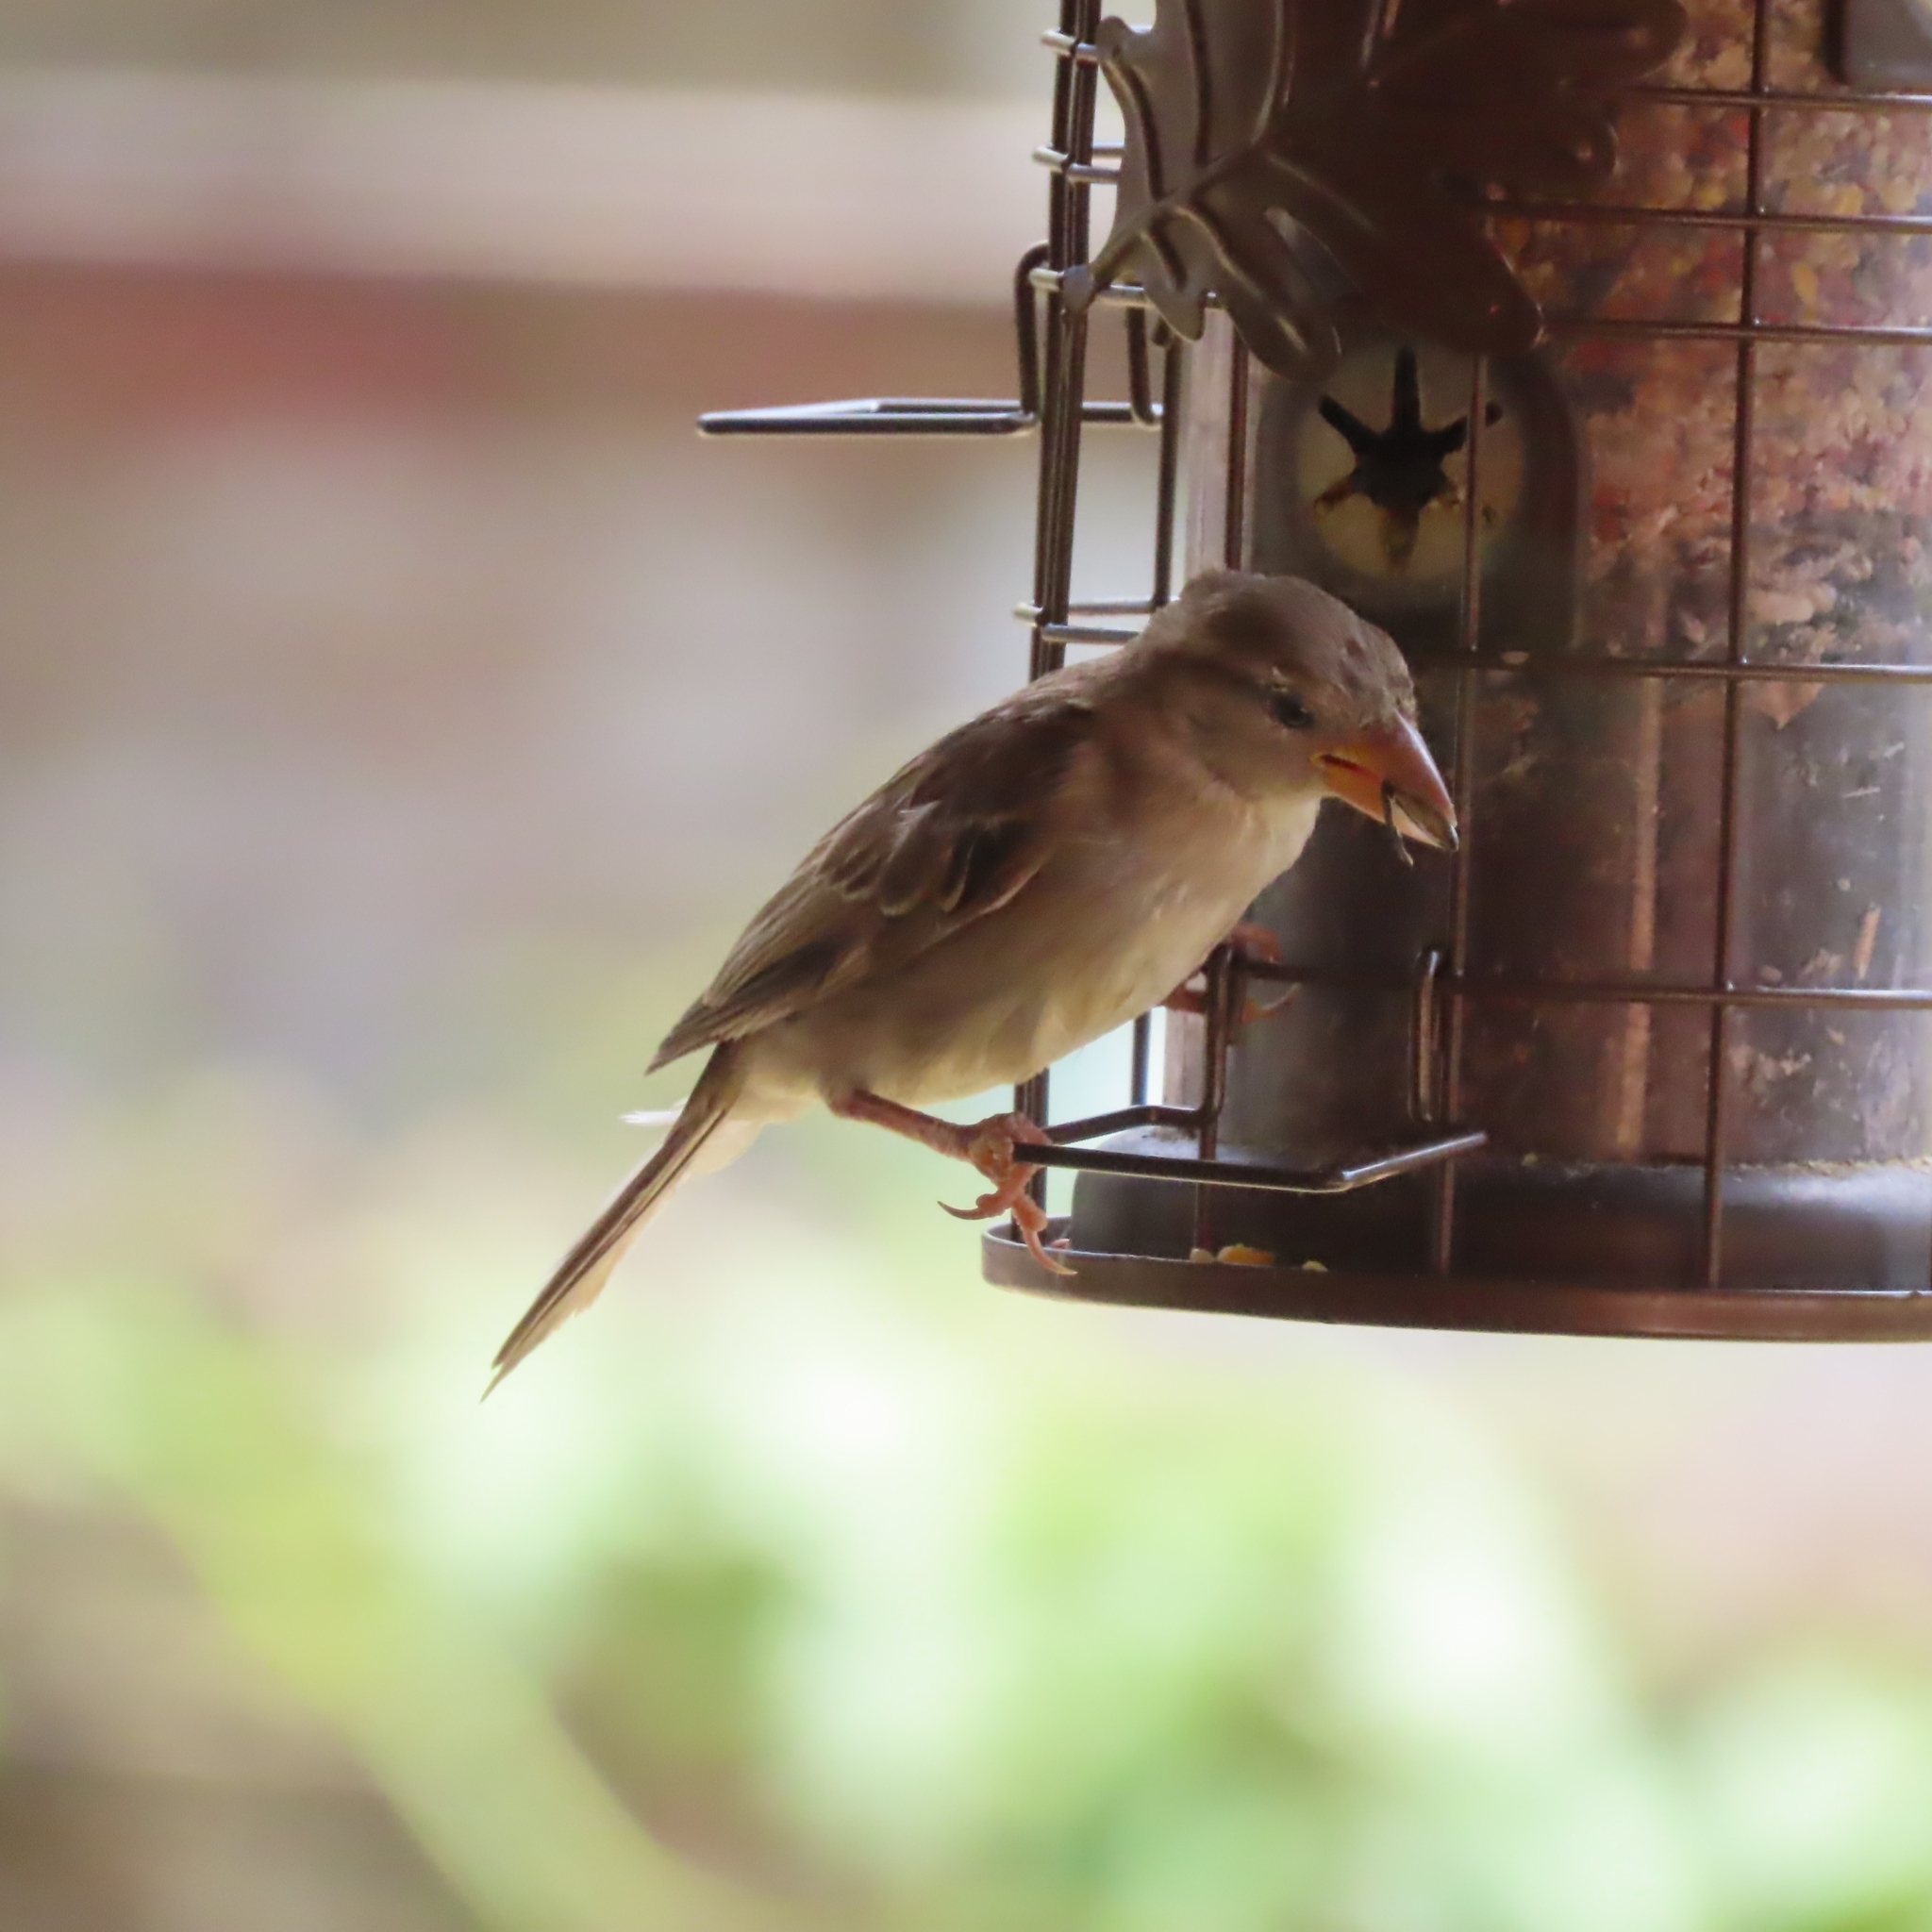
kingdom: Animalia
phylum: Chordata
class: Aves
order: Passeriformes
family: Passeridae
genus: Passer
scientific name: Passer domesticus
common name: House sparrow
